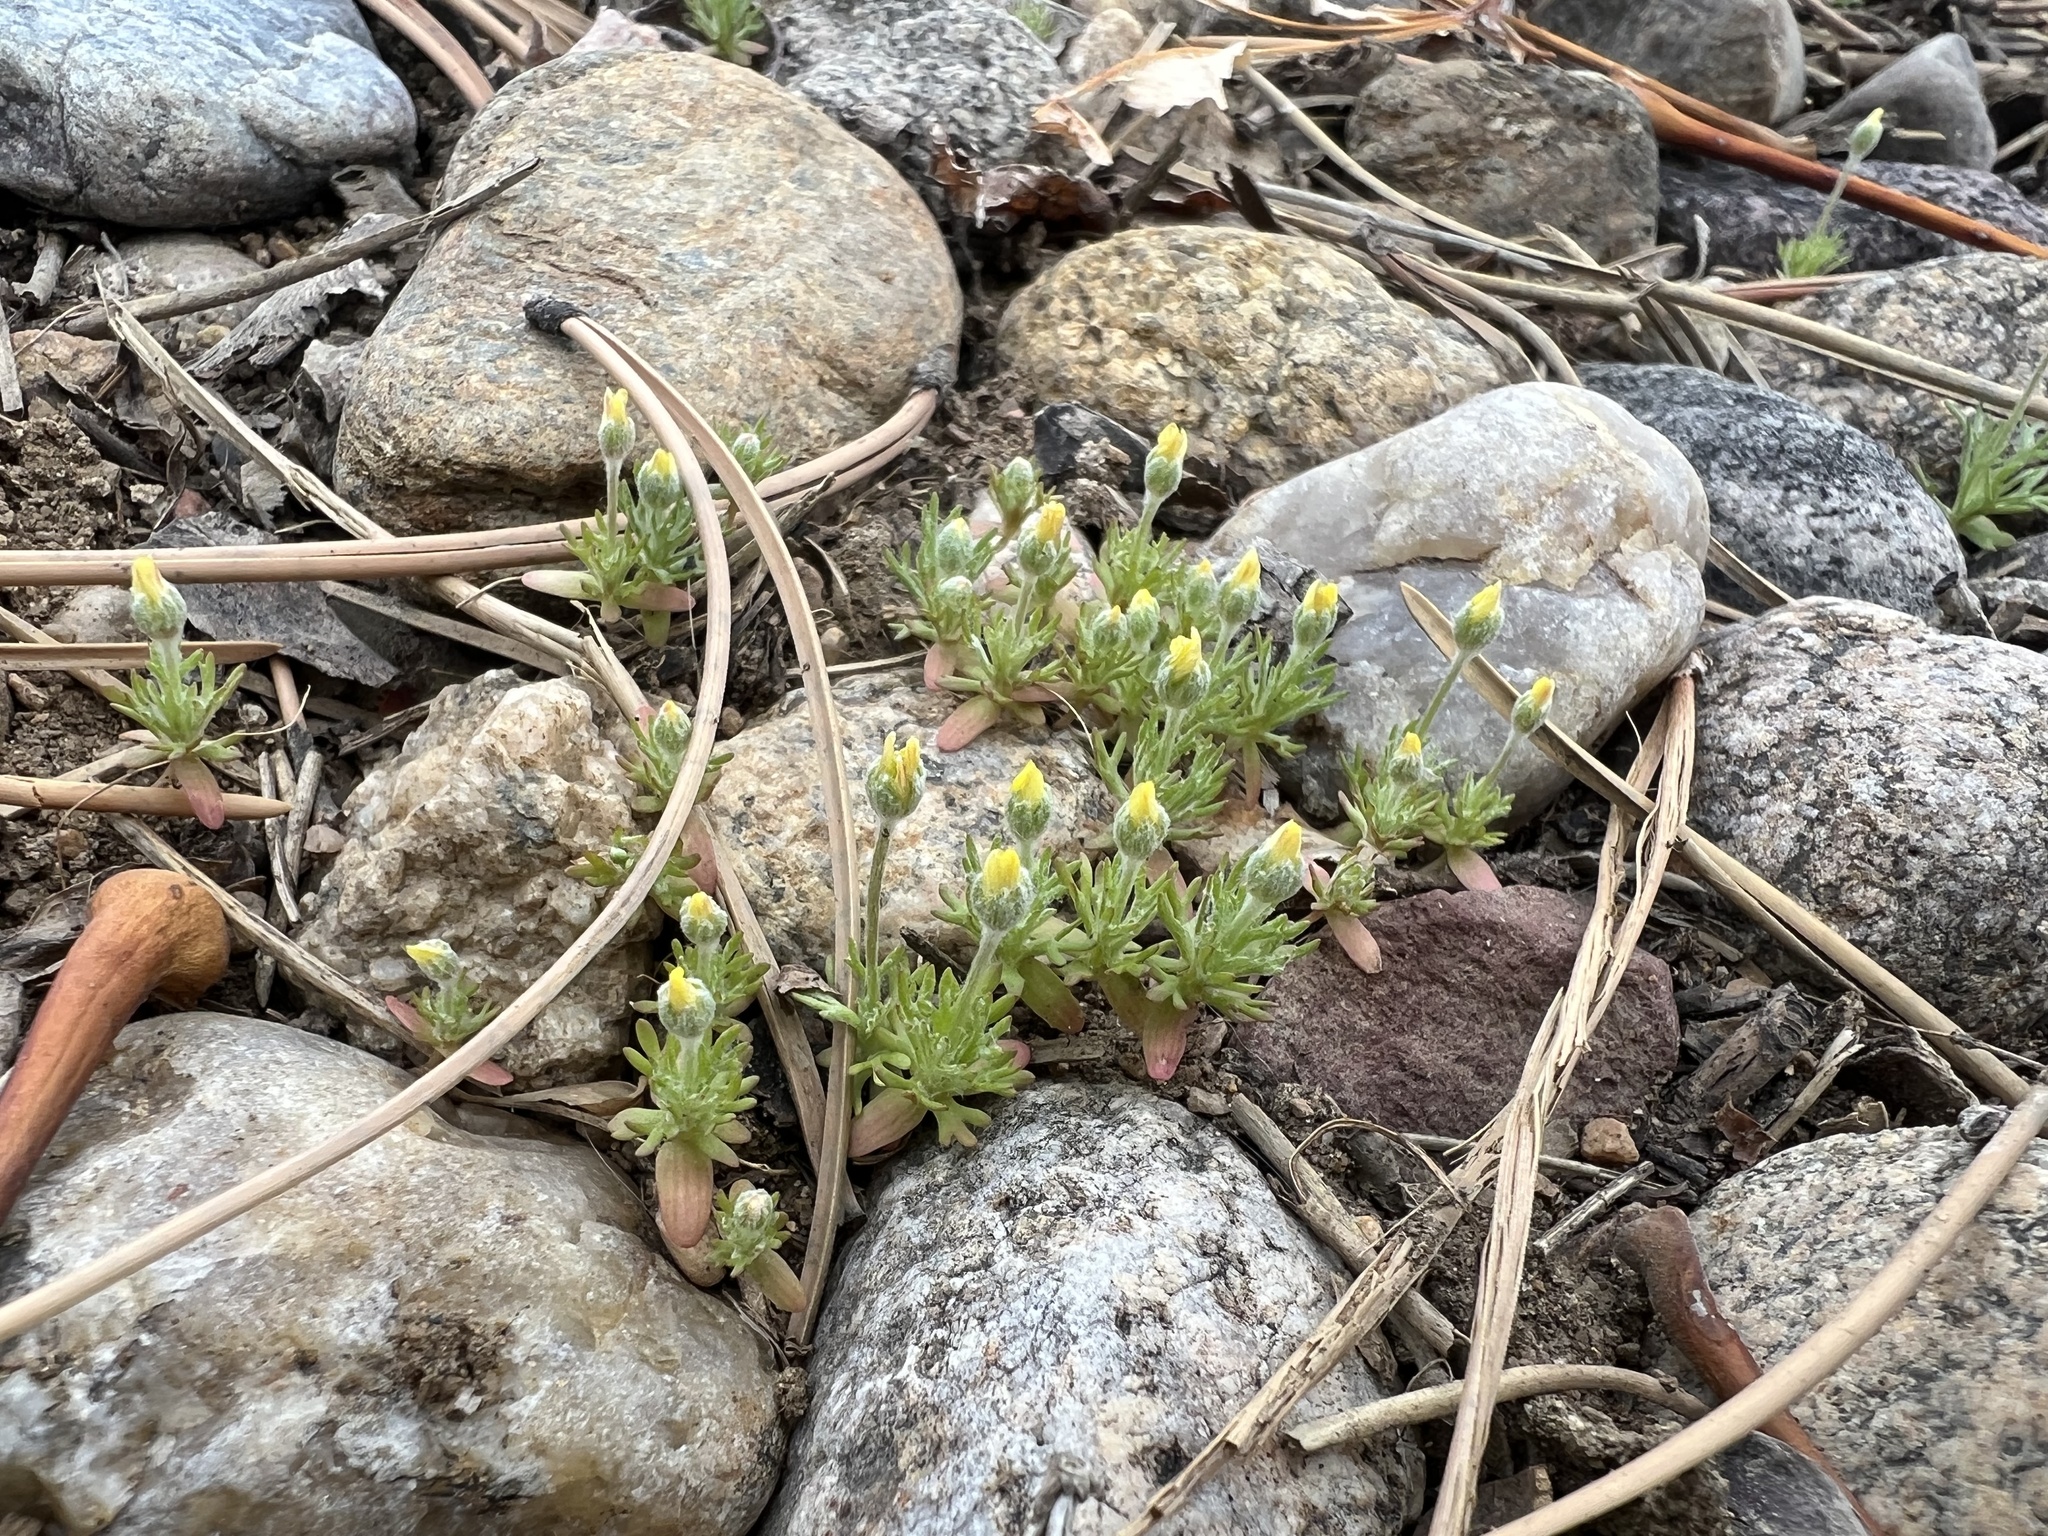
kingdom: Plantae
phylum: Tracheophyta
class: Magnoliopsida
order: Ranunculales
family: Ranunculaceae
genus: Ceratocephala
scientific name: Ceratocephala orthoceras
